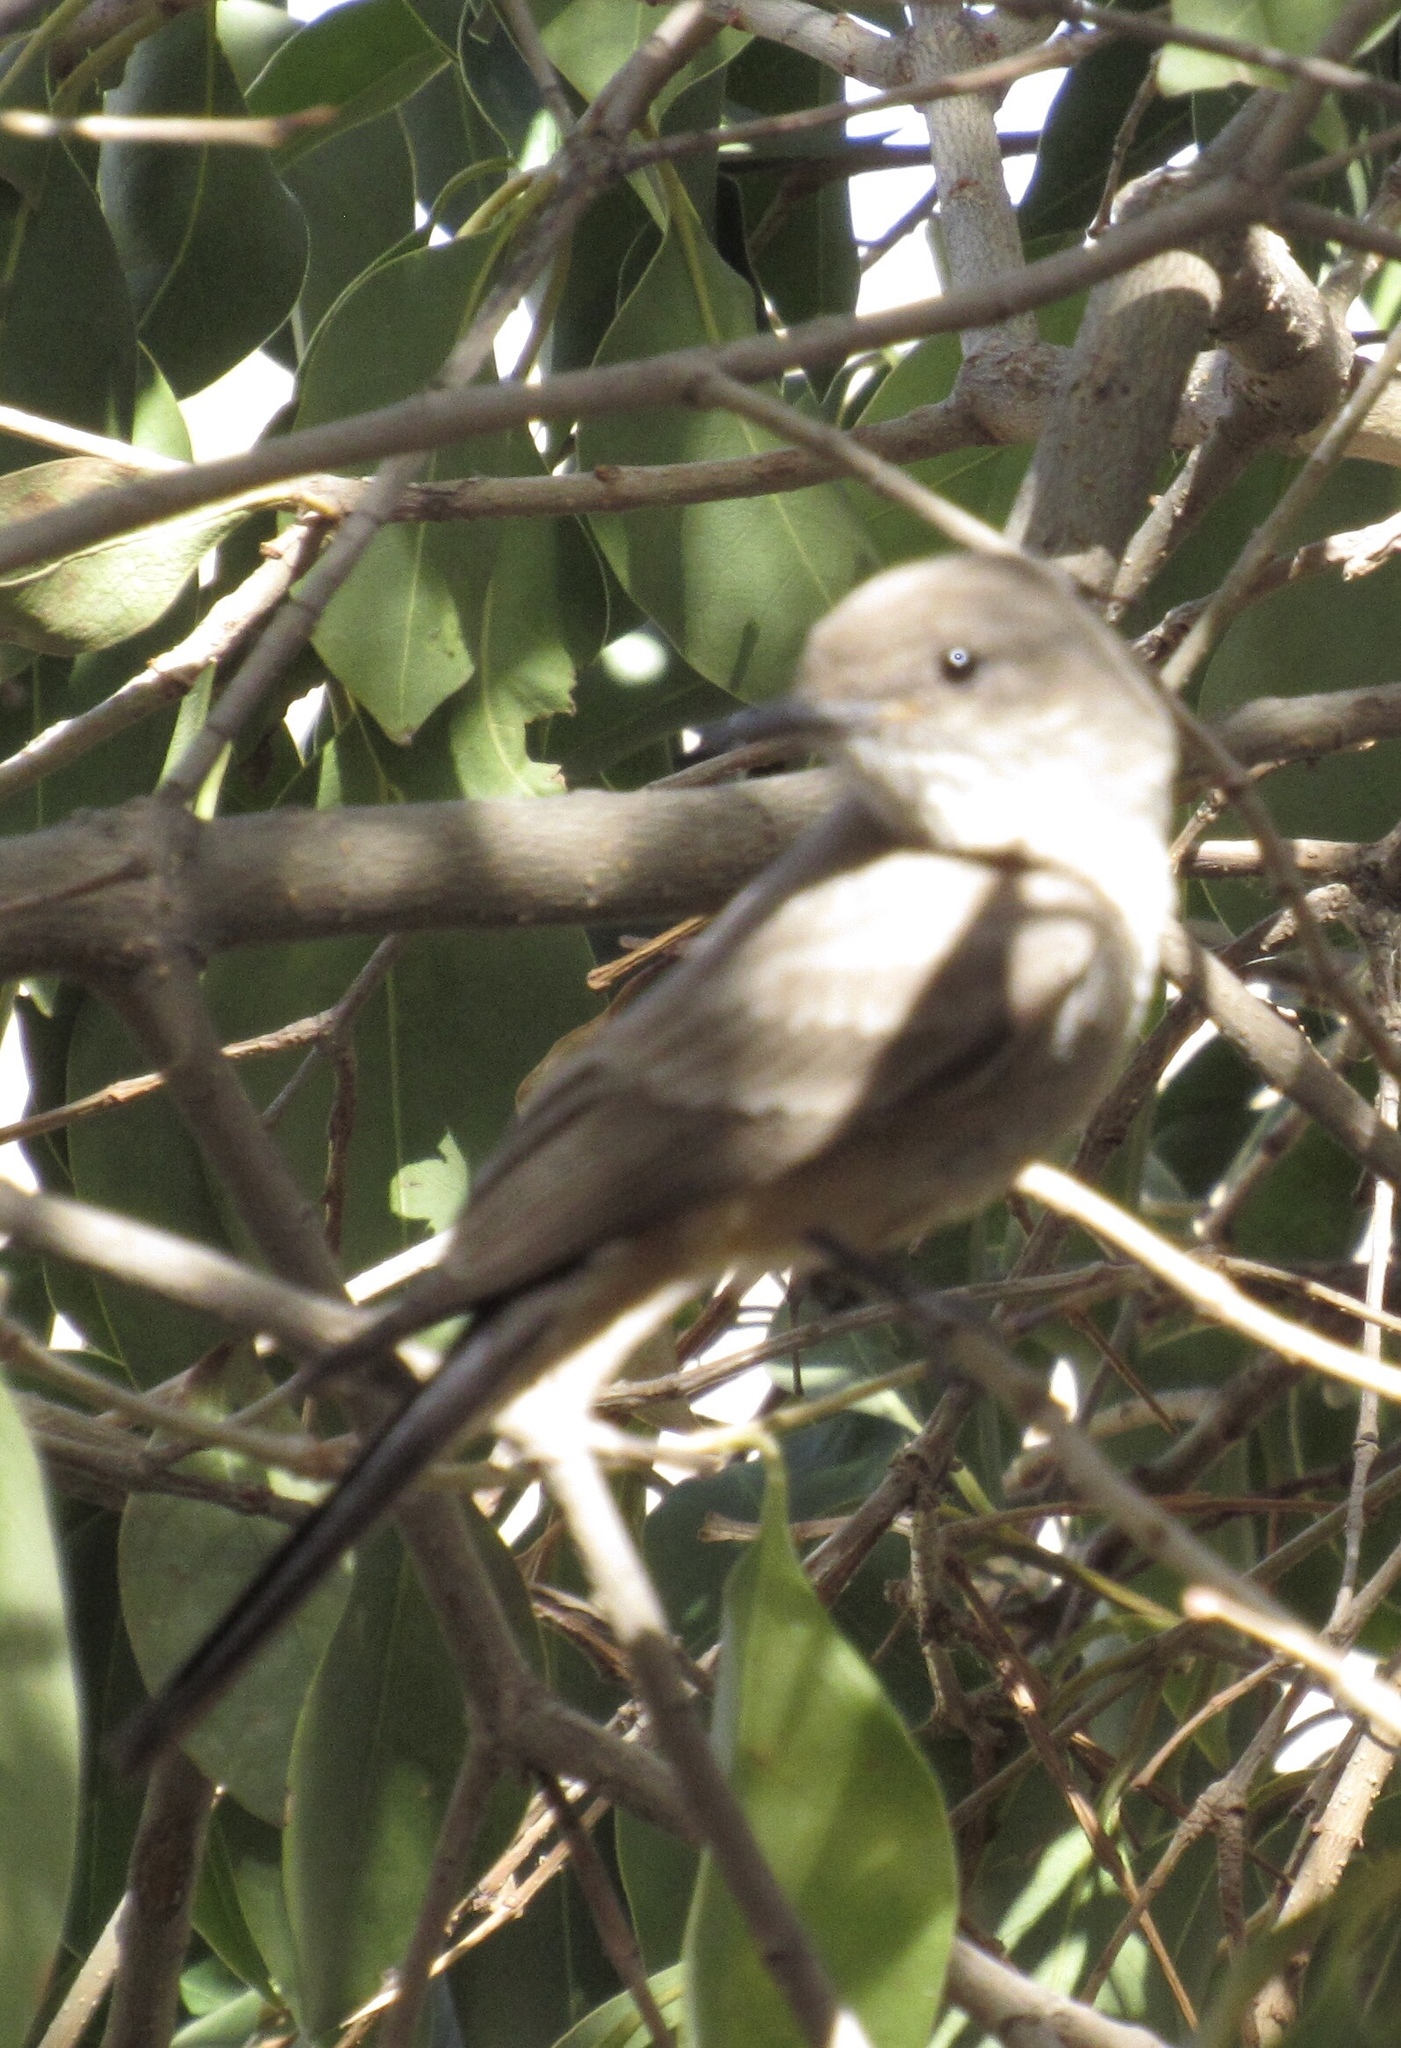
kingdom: Animalia
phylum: Chordata
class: Aves
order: Passeriformes
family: Tyrannidae
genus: Sayornis
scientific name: Sayornis saya
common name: Say's phoebe
